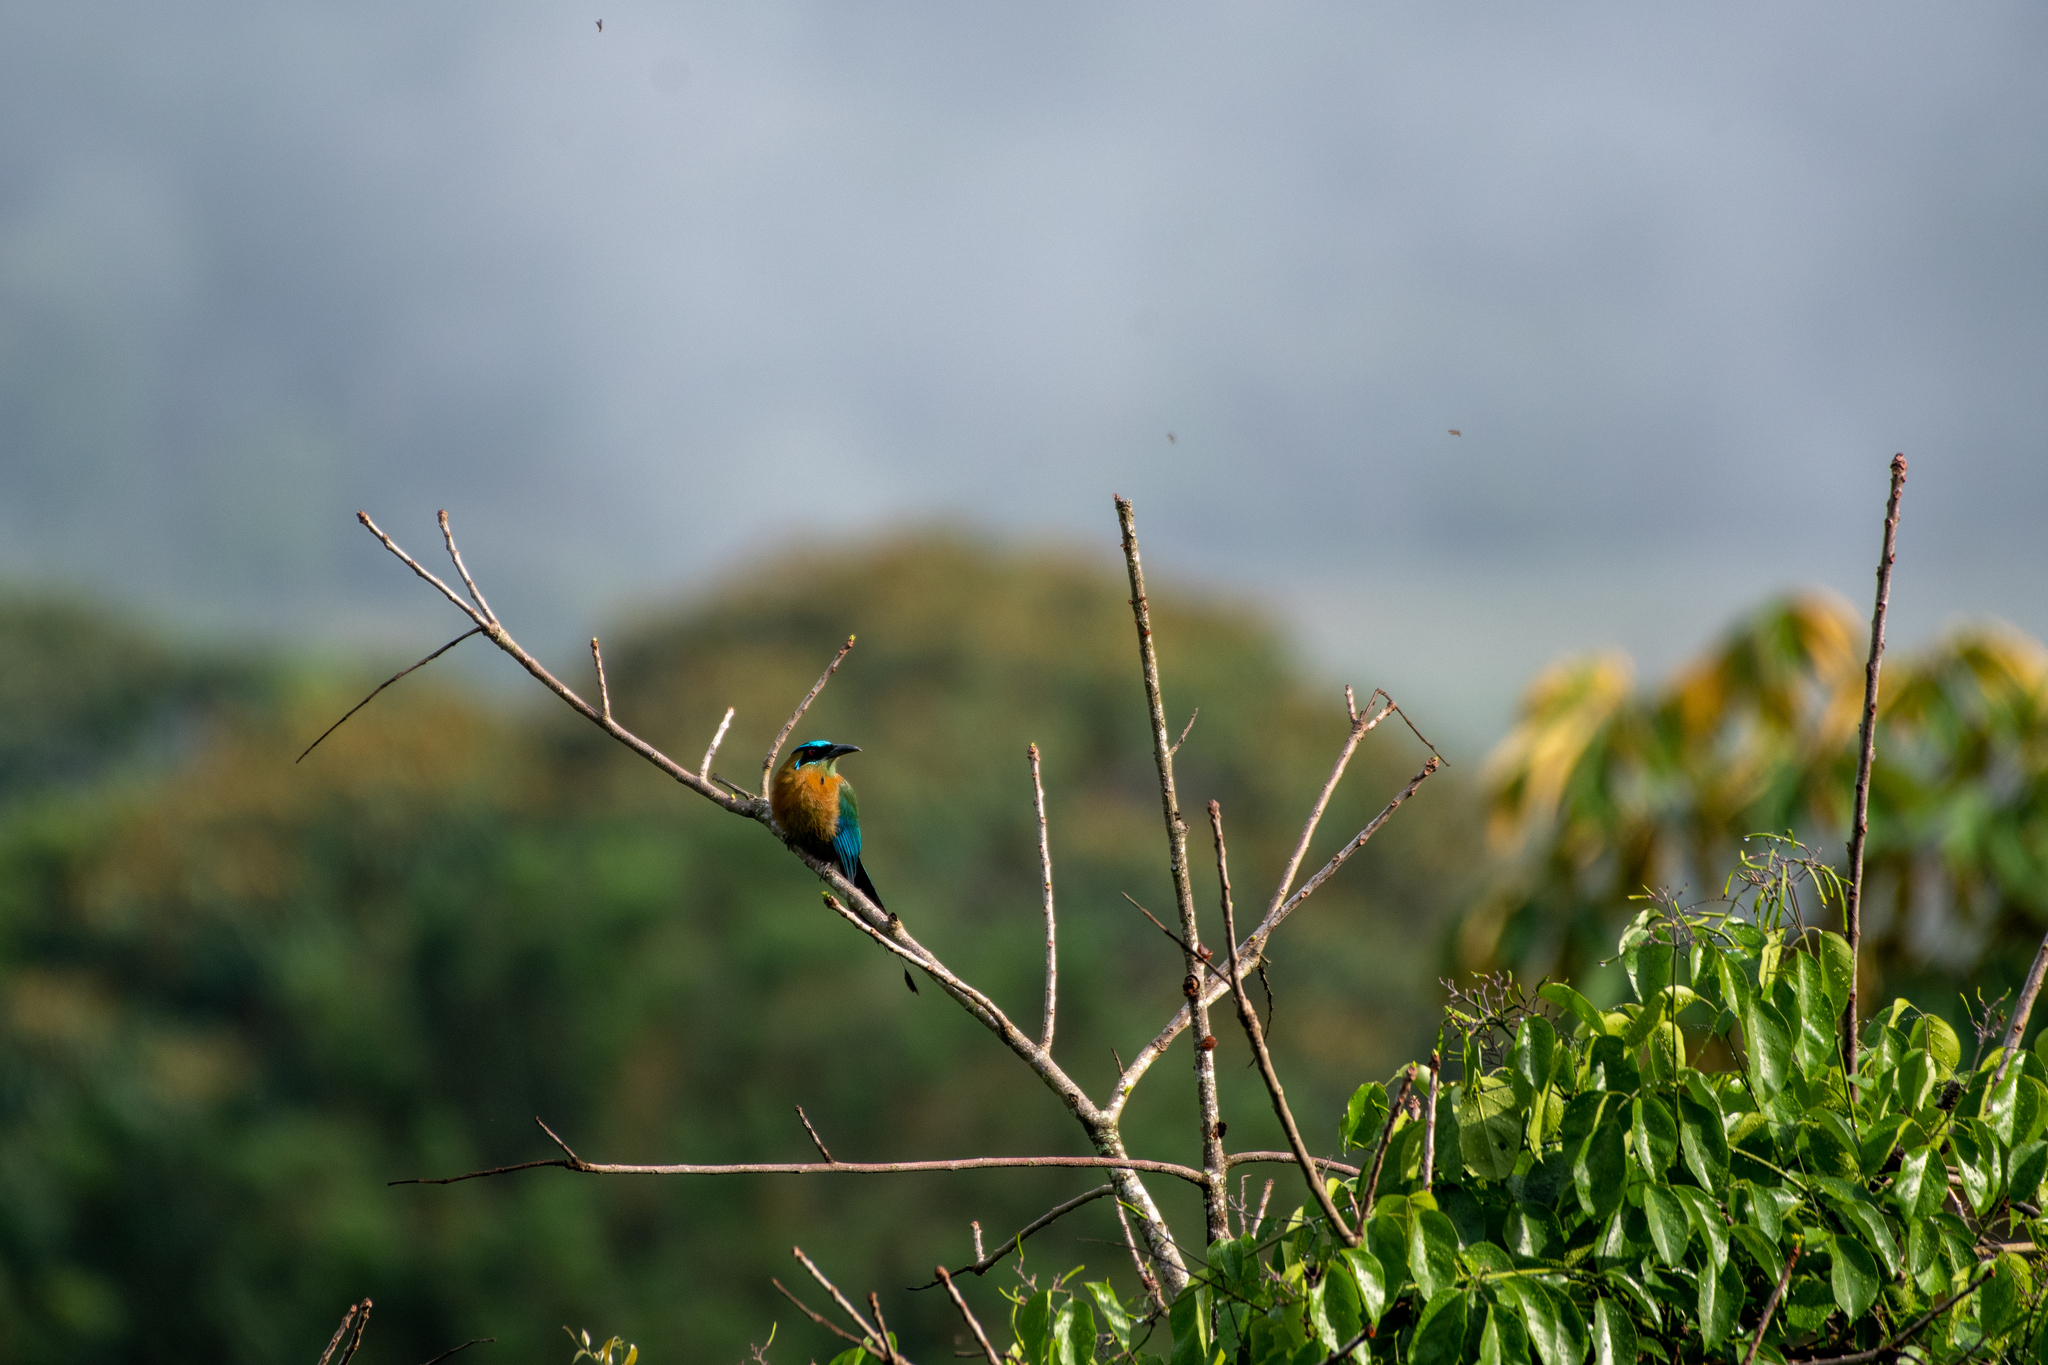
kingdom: Animalia
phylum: Chordata
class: Aves
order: Coraciiformes
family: Momotidae
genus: Momotus
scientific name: Momotus lessonii
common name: Lesson's motmot
